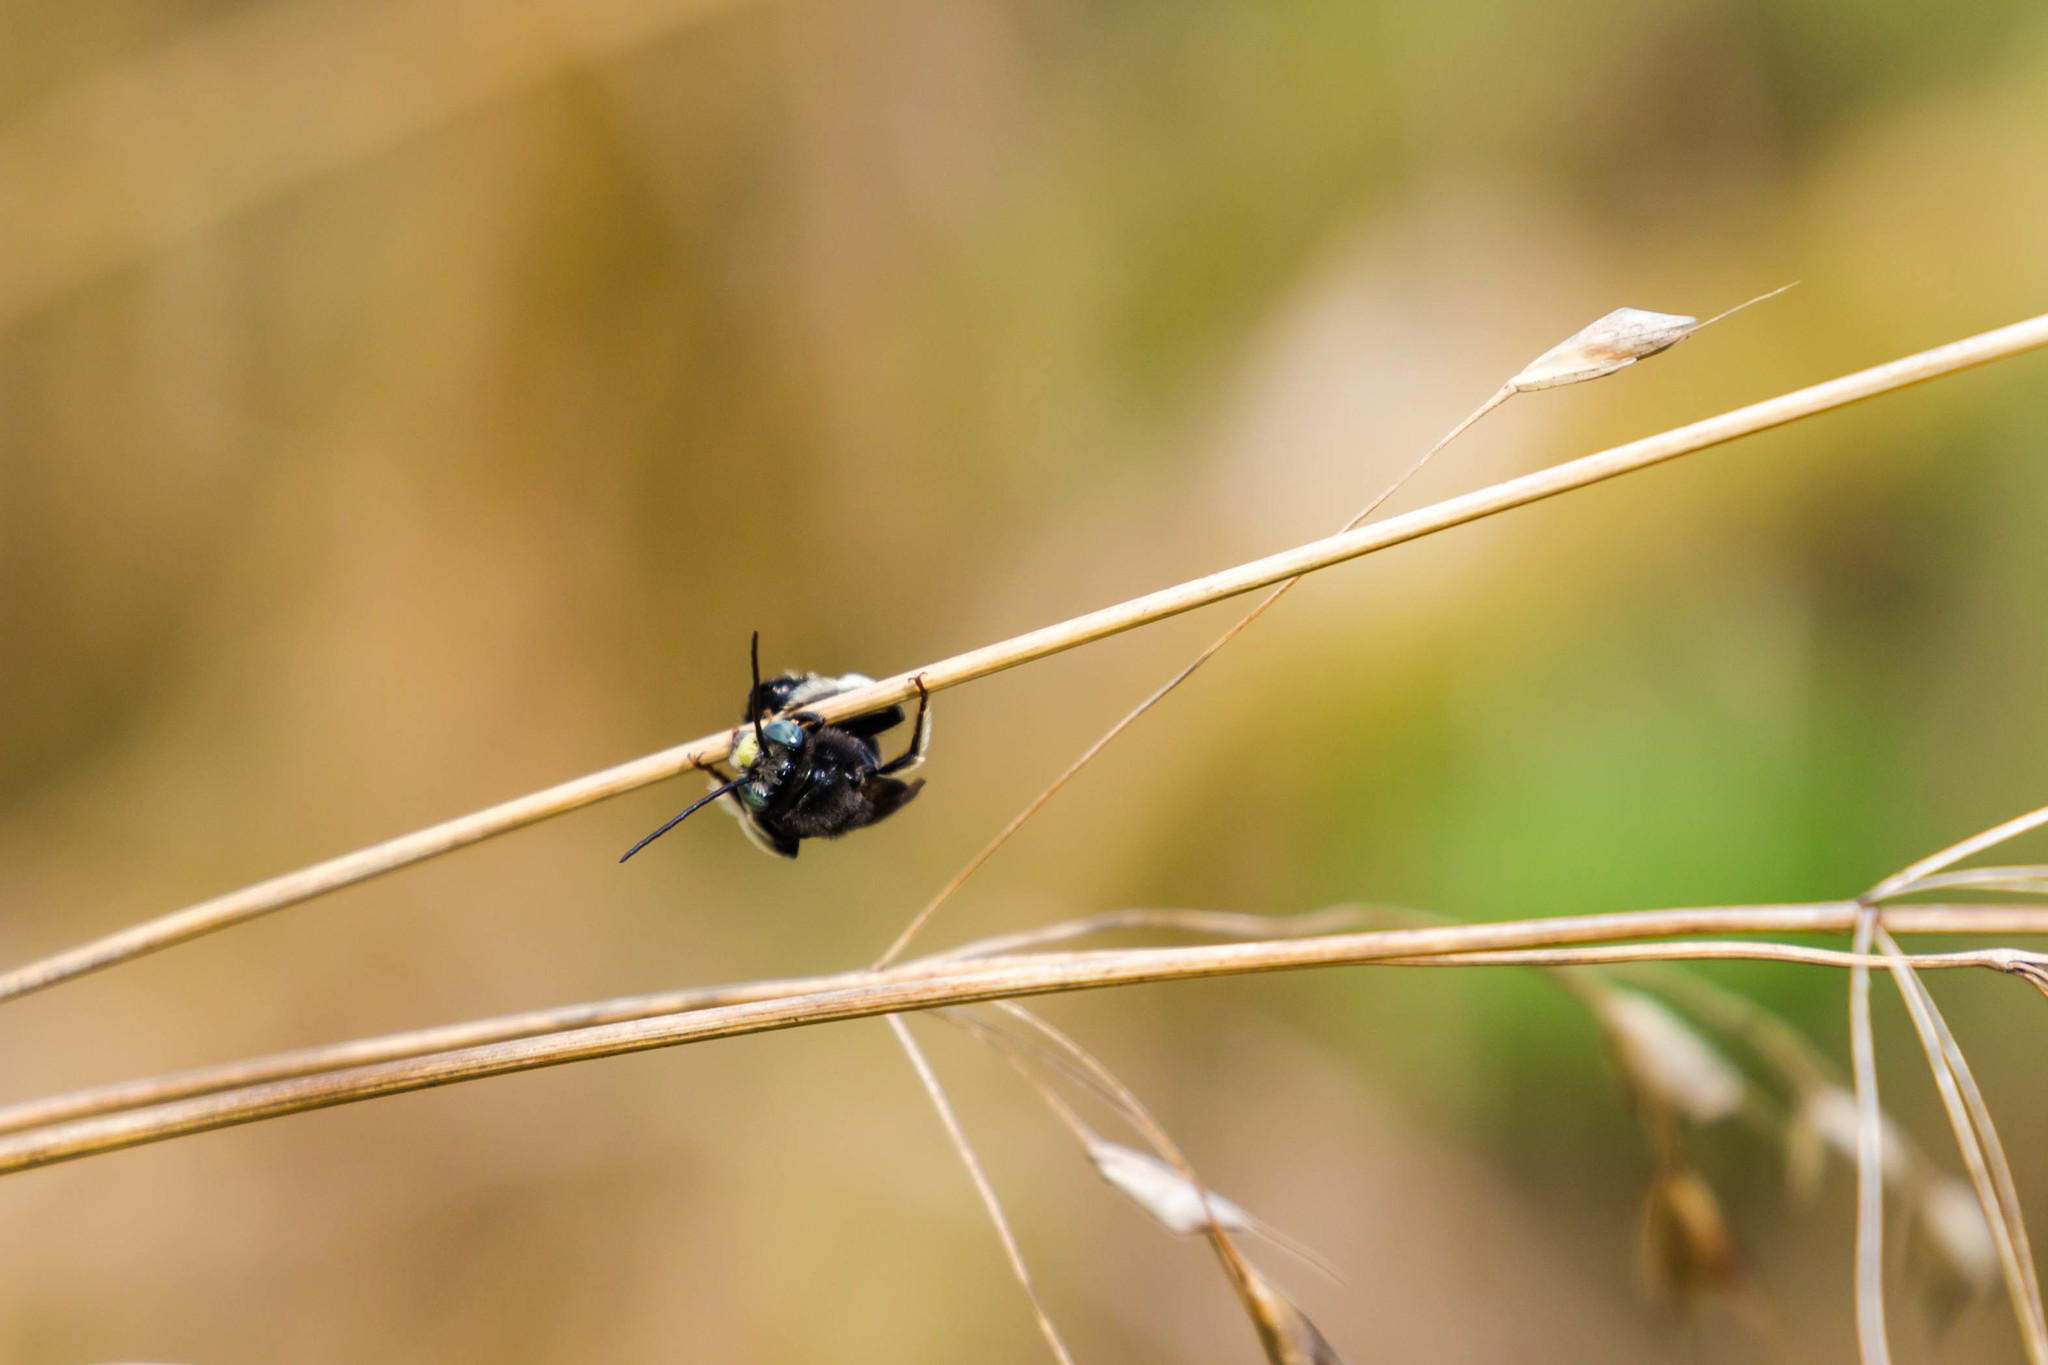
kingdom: Animalia
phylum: Arthropoda
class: Insecta
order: Hymenoptera
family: Apidae
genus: Melissodes
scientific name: Melissodes bimaculatus
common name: Two-spotted long-horned bee
